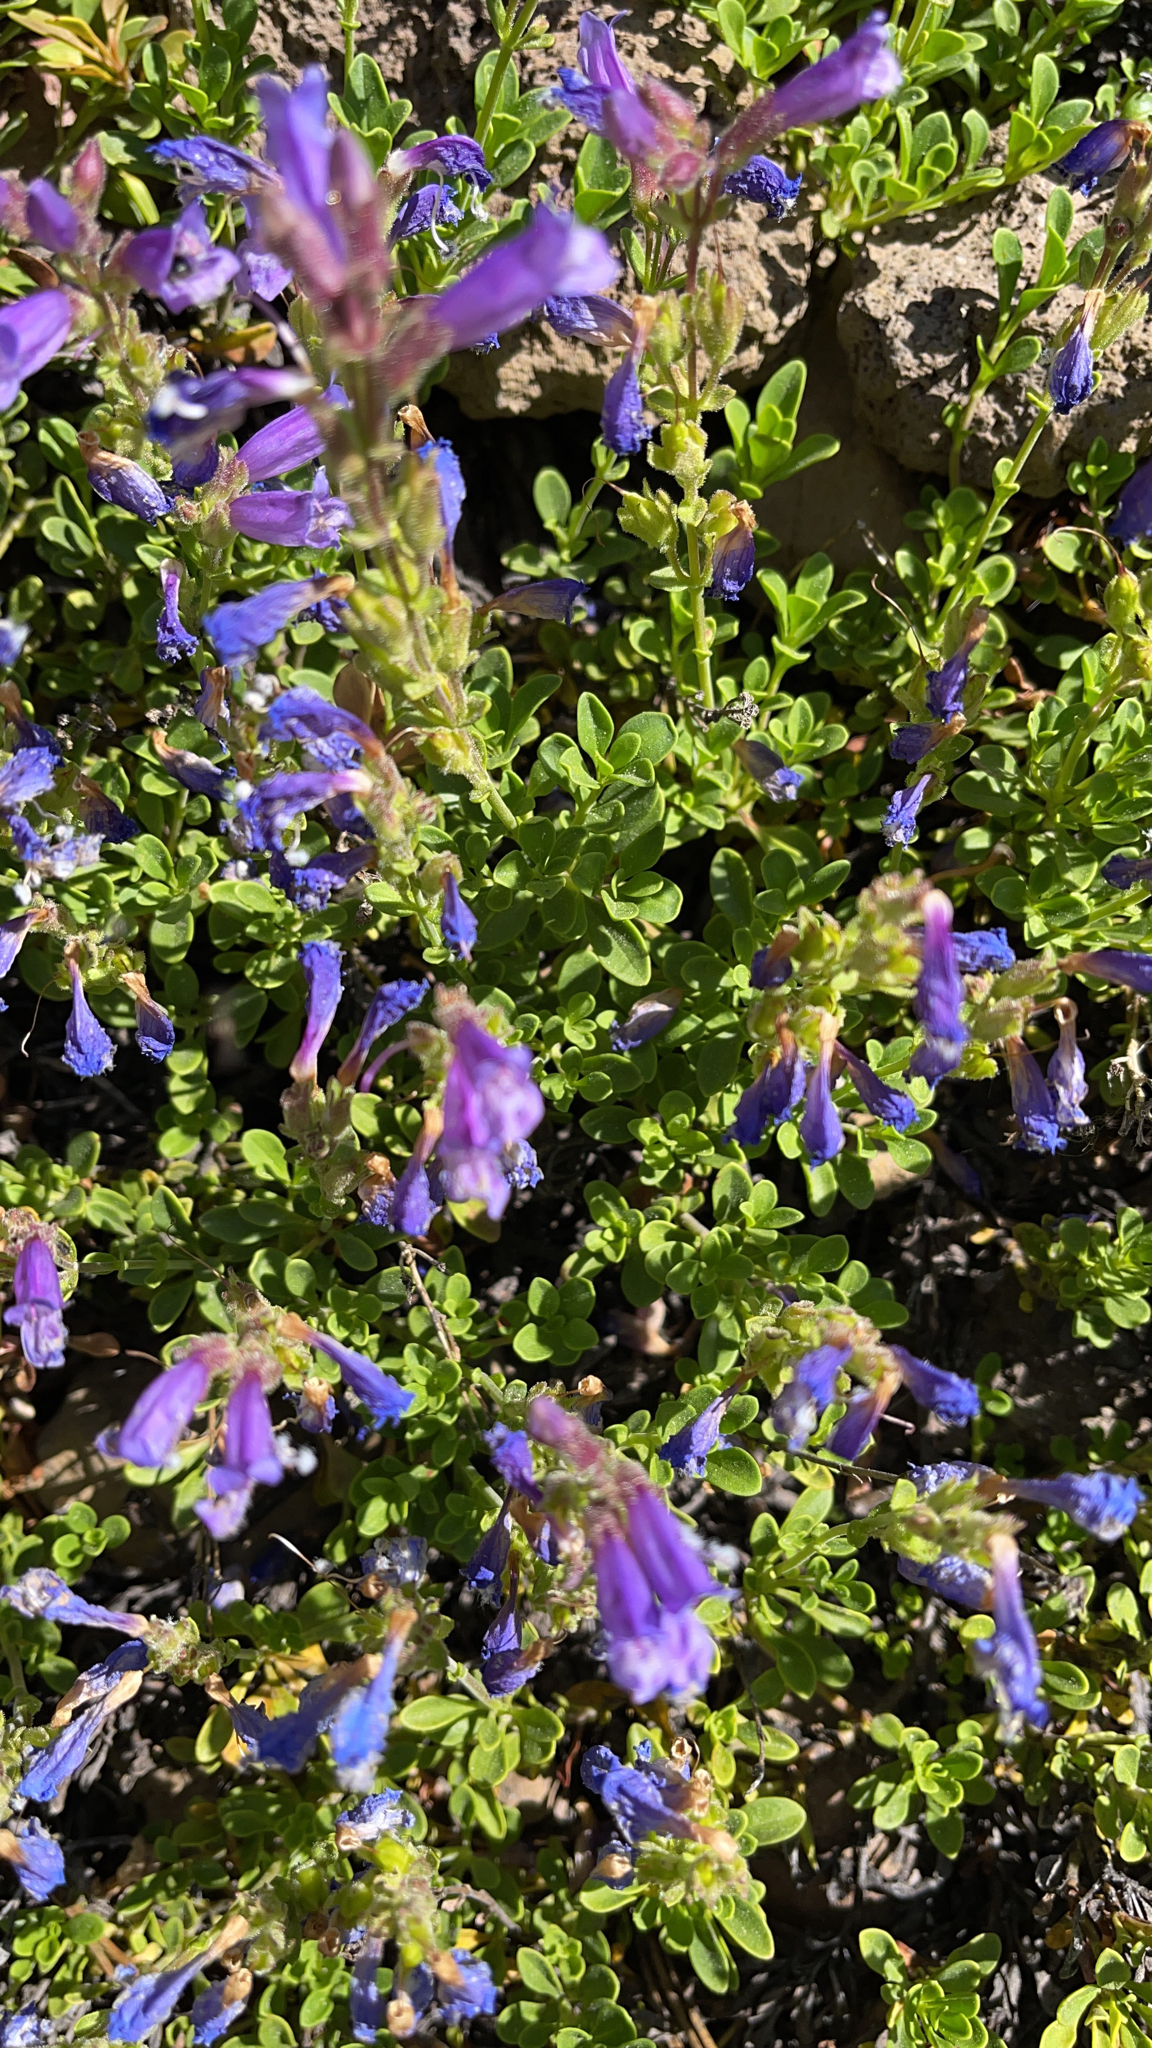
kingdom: Plantae
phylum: Tracheophyta
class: Magnoliopsida
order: Lamiales
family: Plantaginaceae
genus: Penstemon
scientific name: Penstemon davidsonii
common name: Davidson's penstemon
